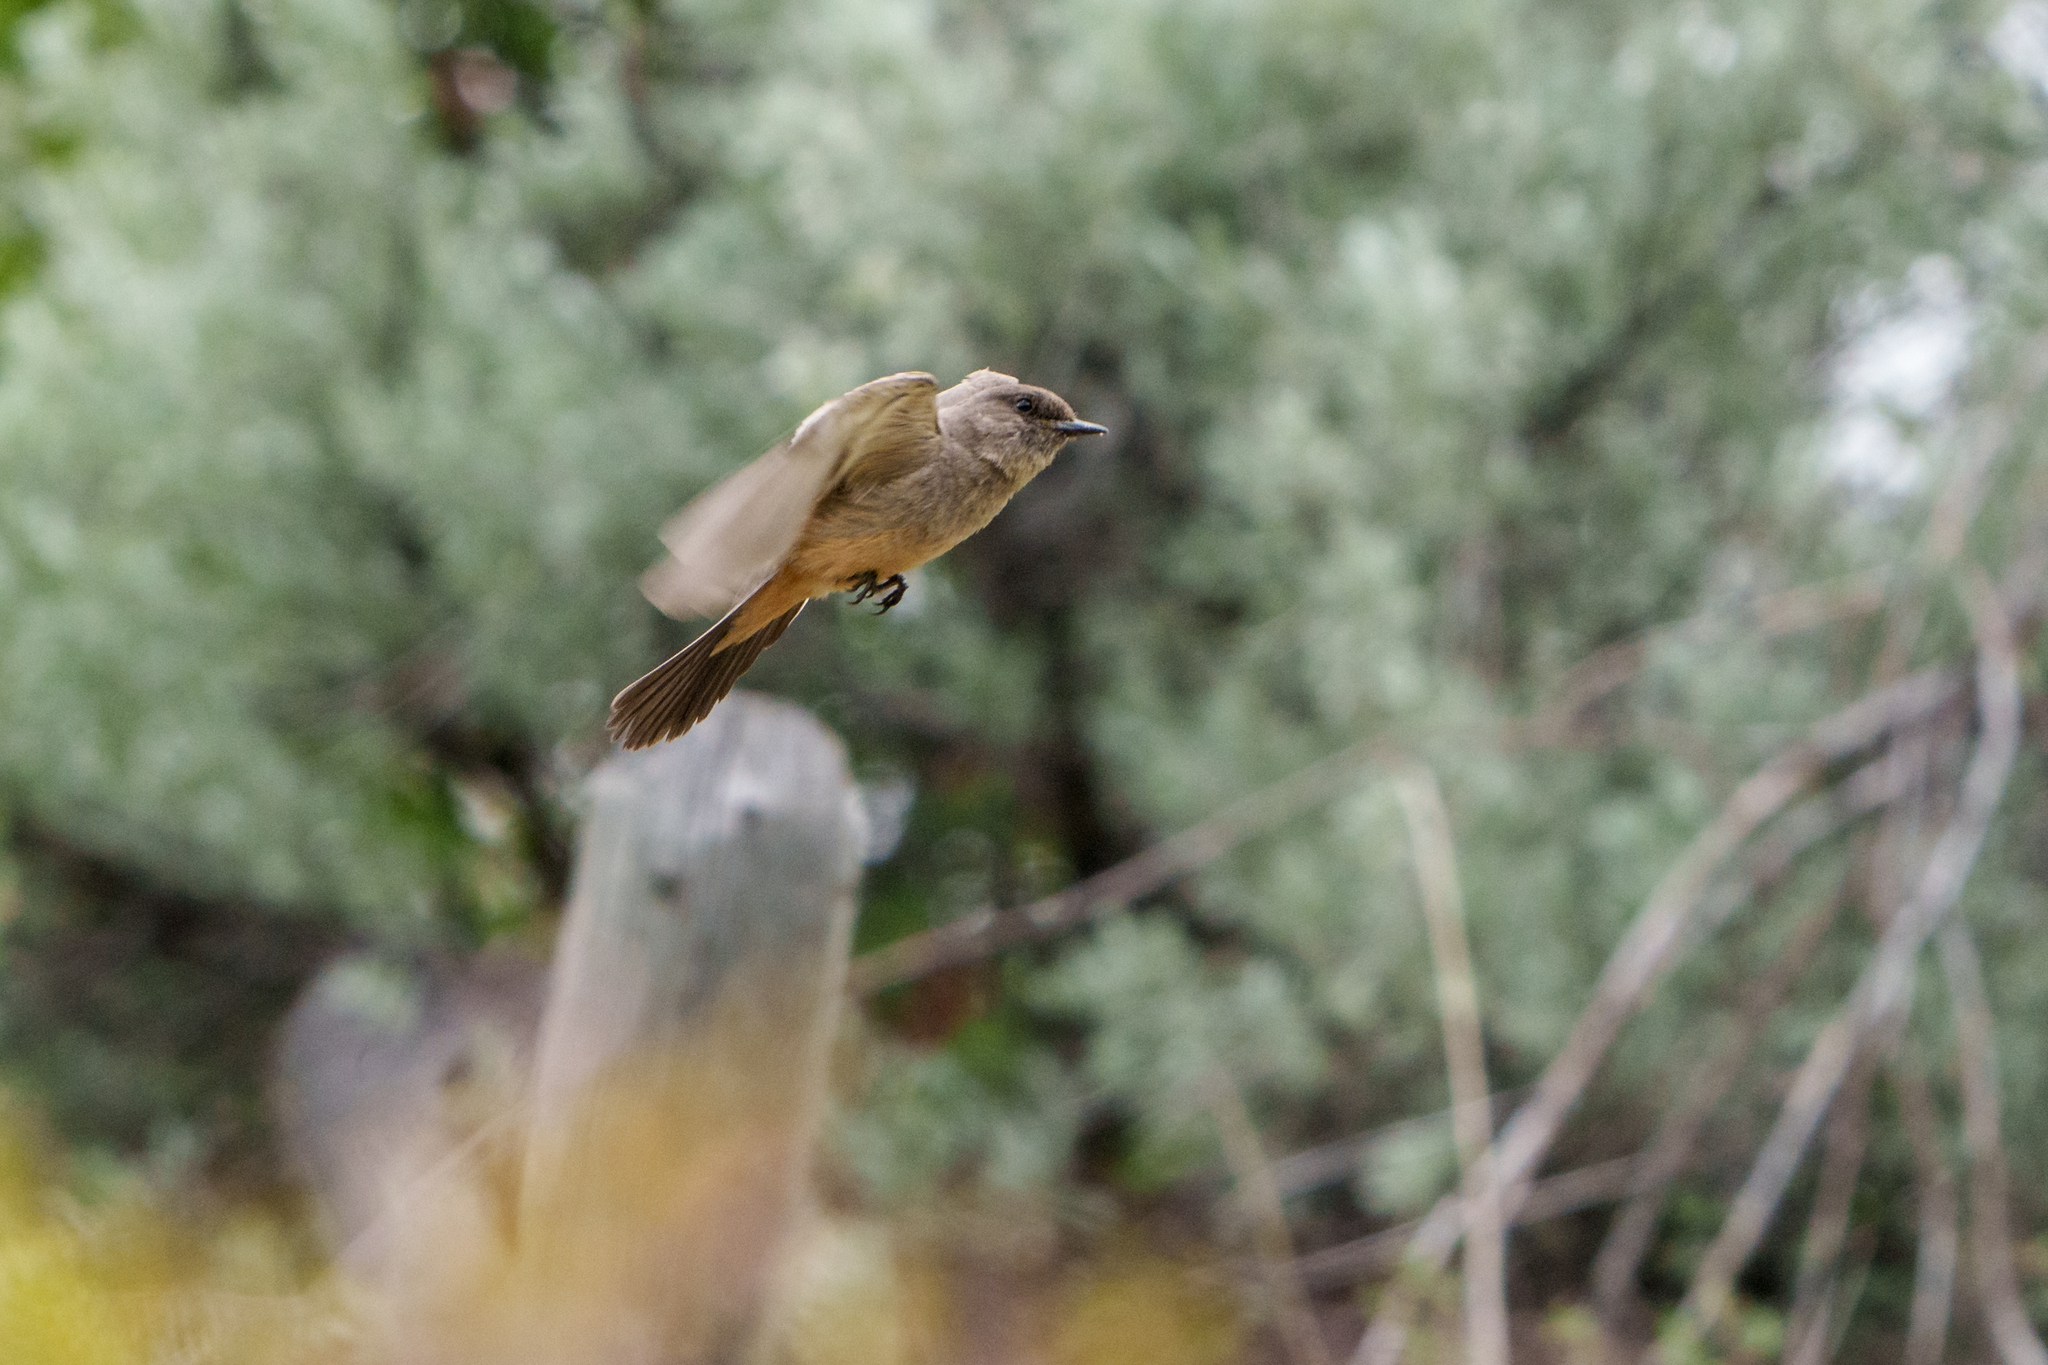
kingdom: Animalia
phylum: Chordata
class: Aves
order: Passeriformes
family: Tyrannidae
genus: Sayornis
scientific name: Sayornis saya
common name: Say's phoebe
